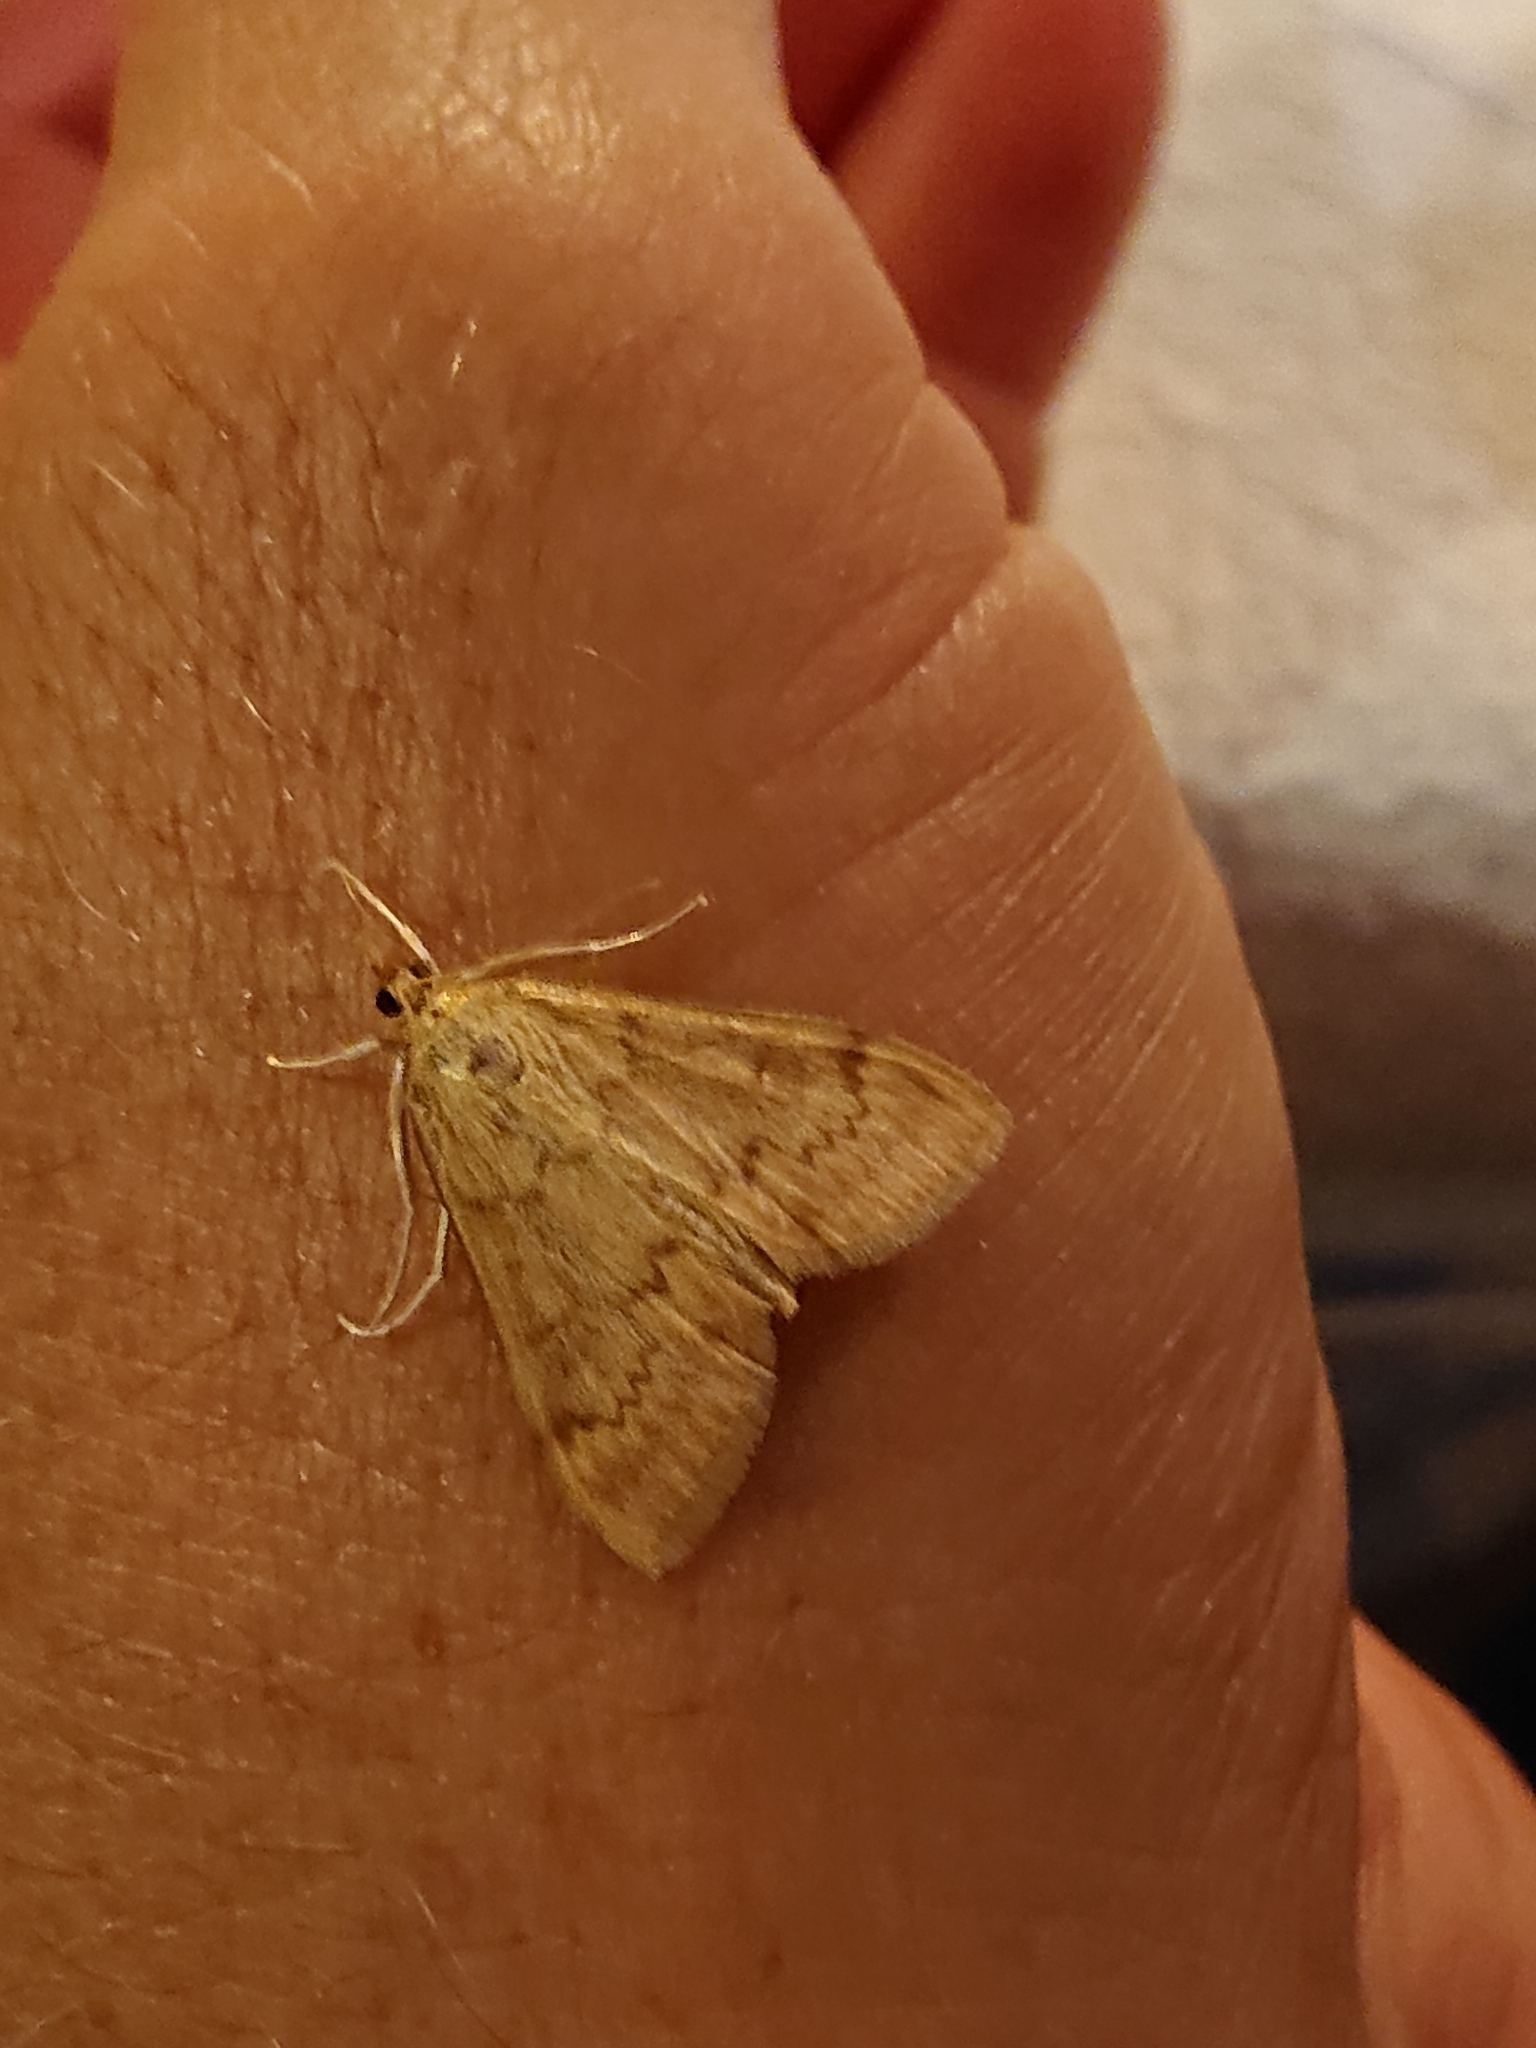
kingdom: Animalia
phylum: Arthropoda
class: Insecta
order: Lepidoptera
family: Crambidae
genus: Ostrinia
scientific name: Ostrinia nubilalis
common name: European corn borer
